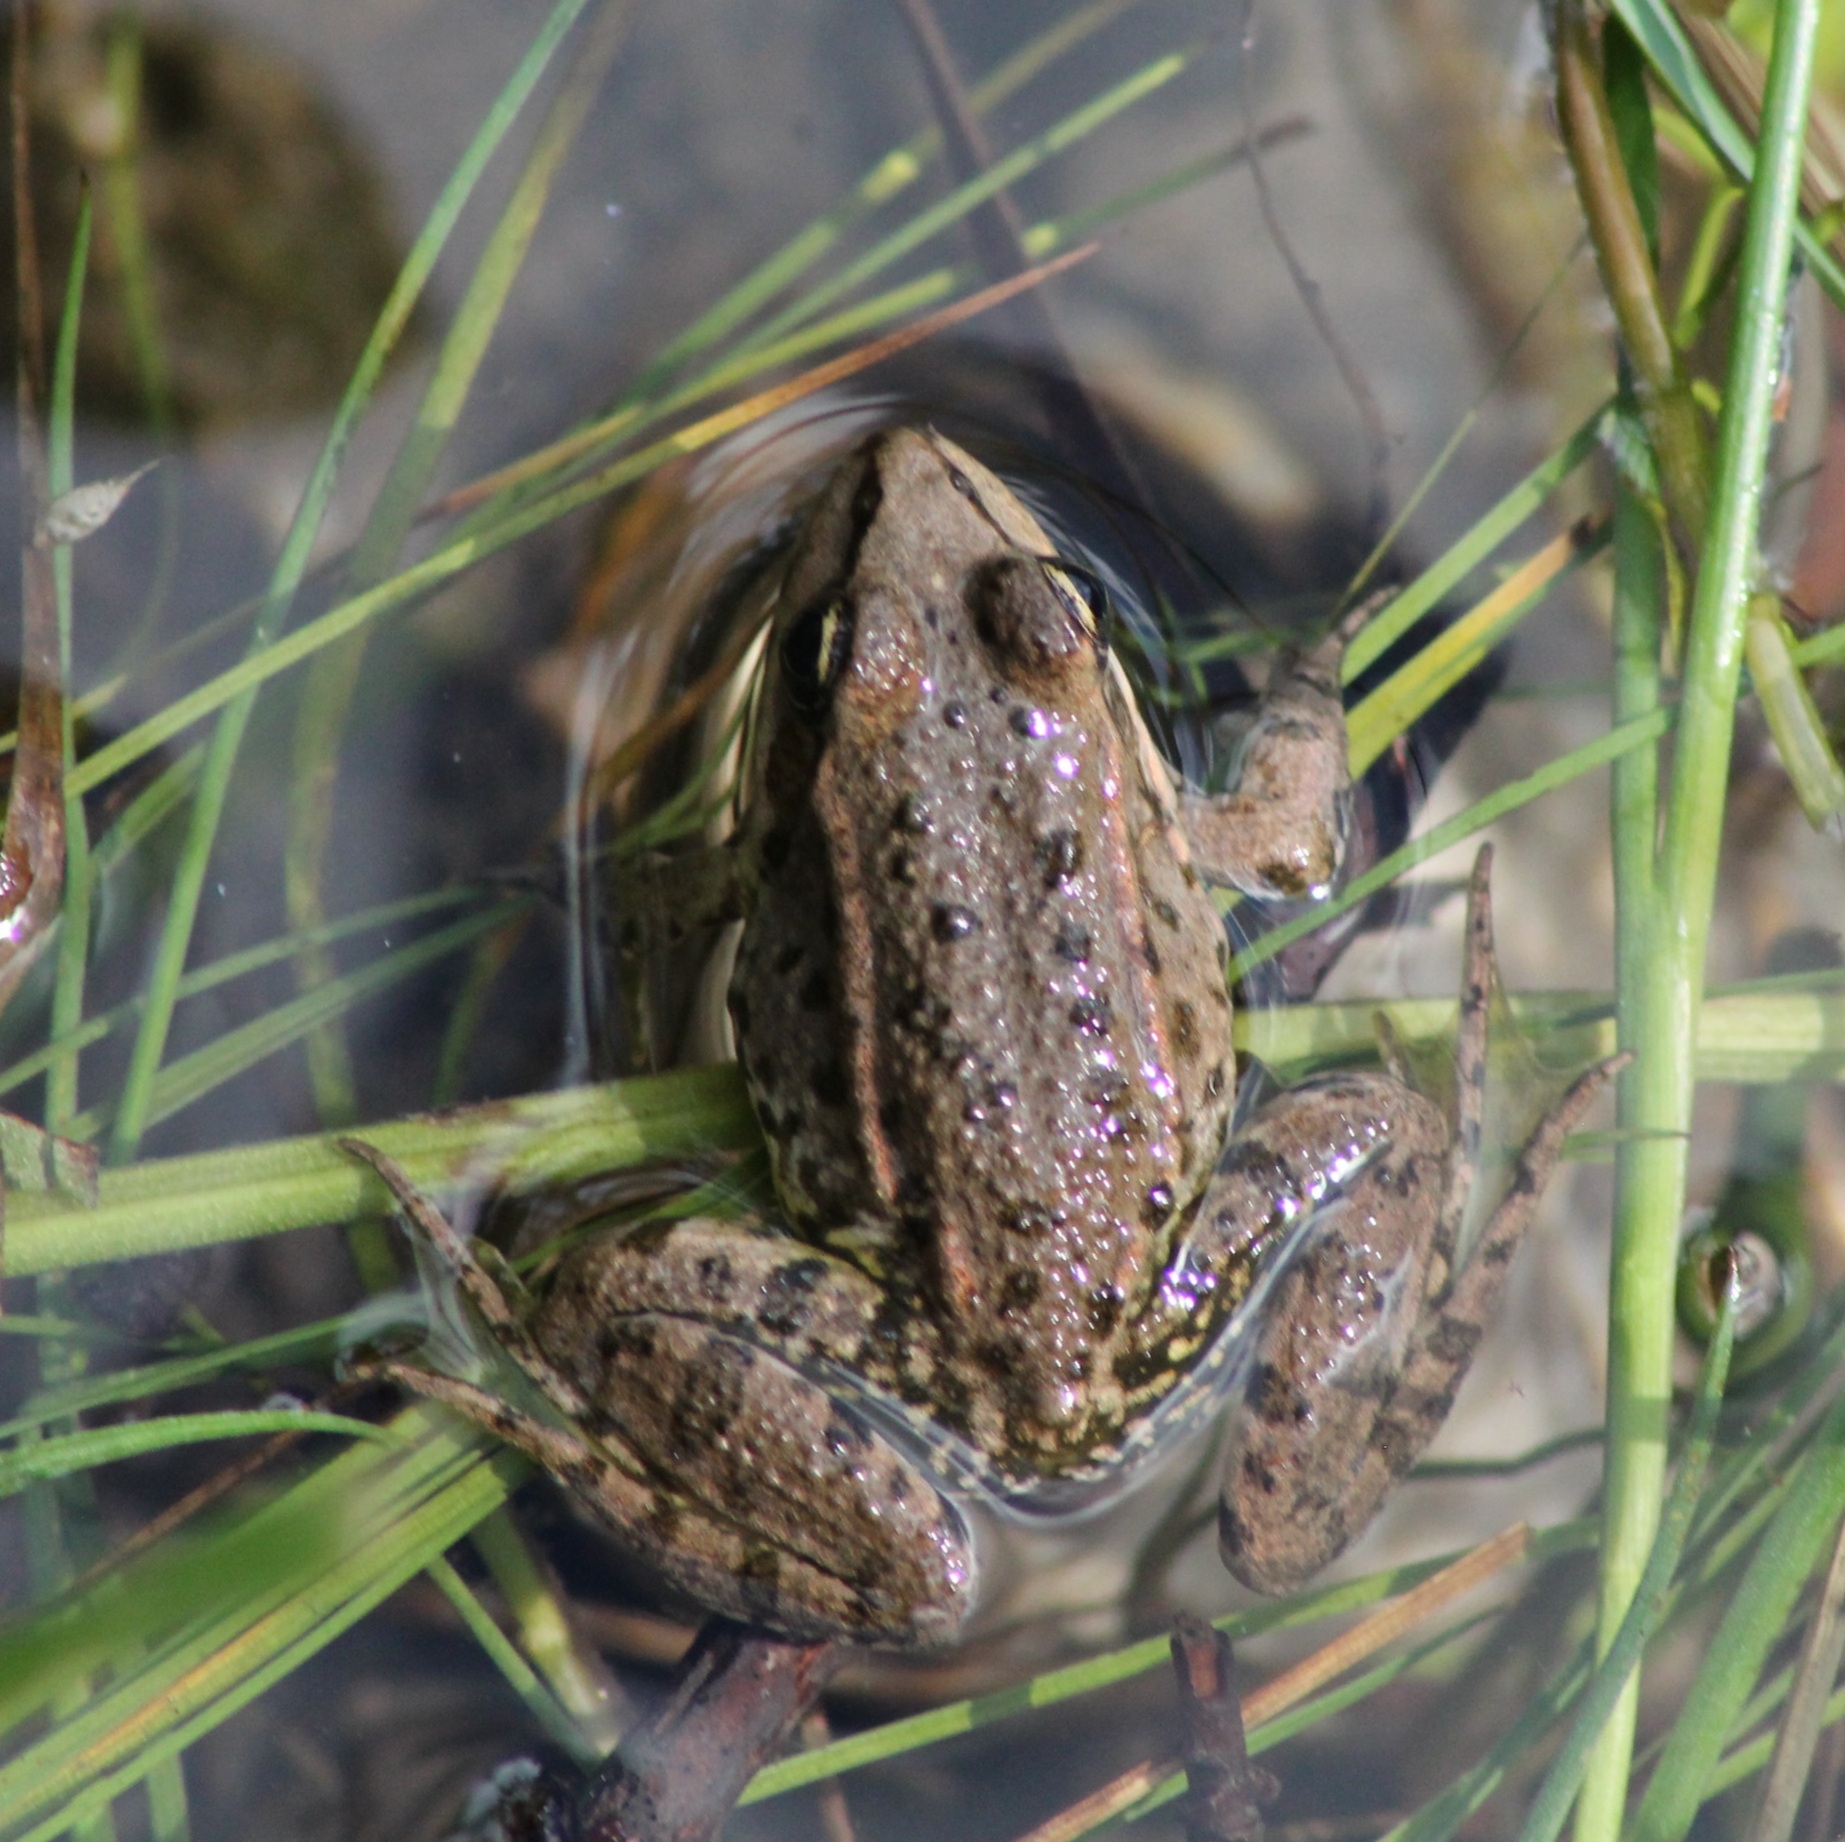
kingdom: Animalia
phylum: Chordata
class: Amphibia
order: Anura
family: Ranidae
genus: Pelophylax
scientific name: Pelophylax
